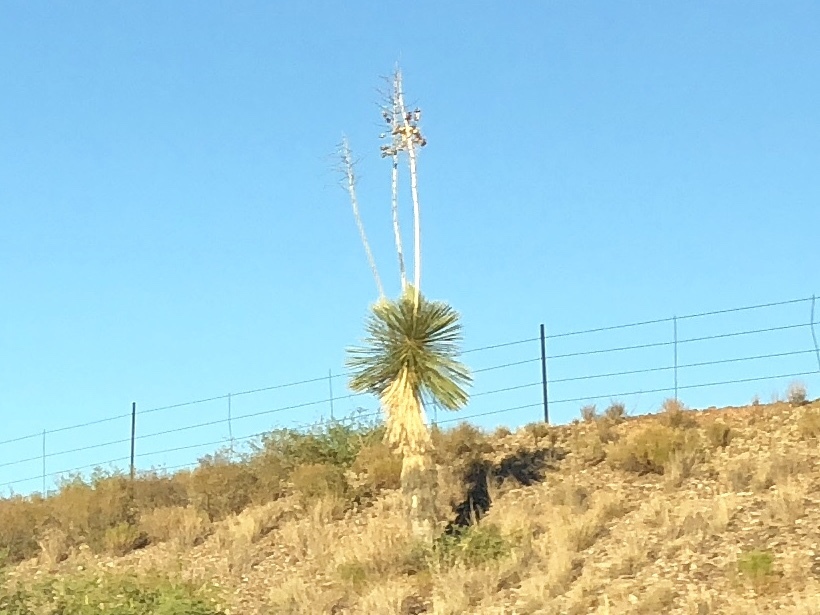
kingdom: Plantae
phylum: Tracheophyta
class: Liliopsida
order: Asparagales
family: Asparagaceae
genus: Yucca
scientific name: Yucca elata
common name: Palmella
